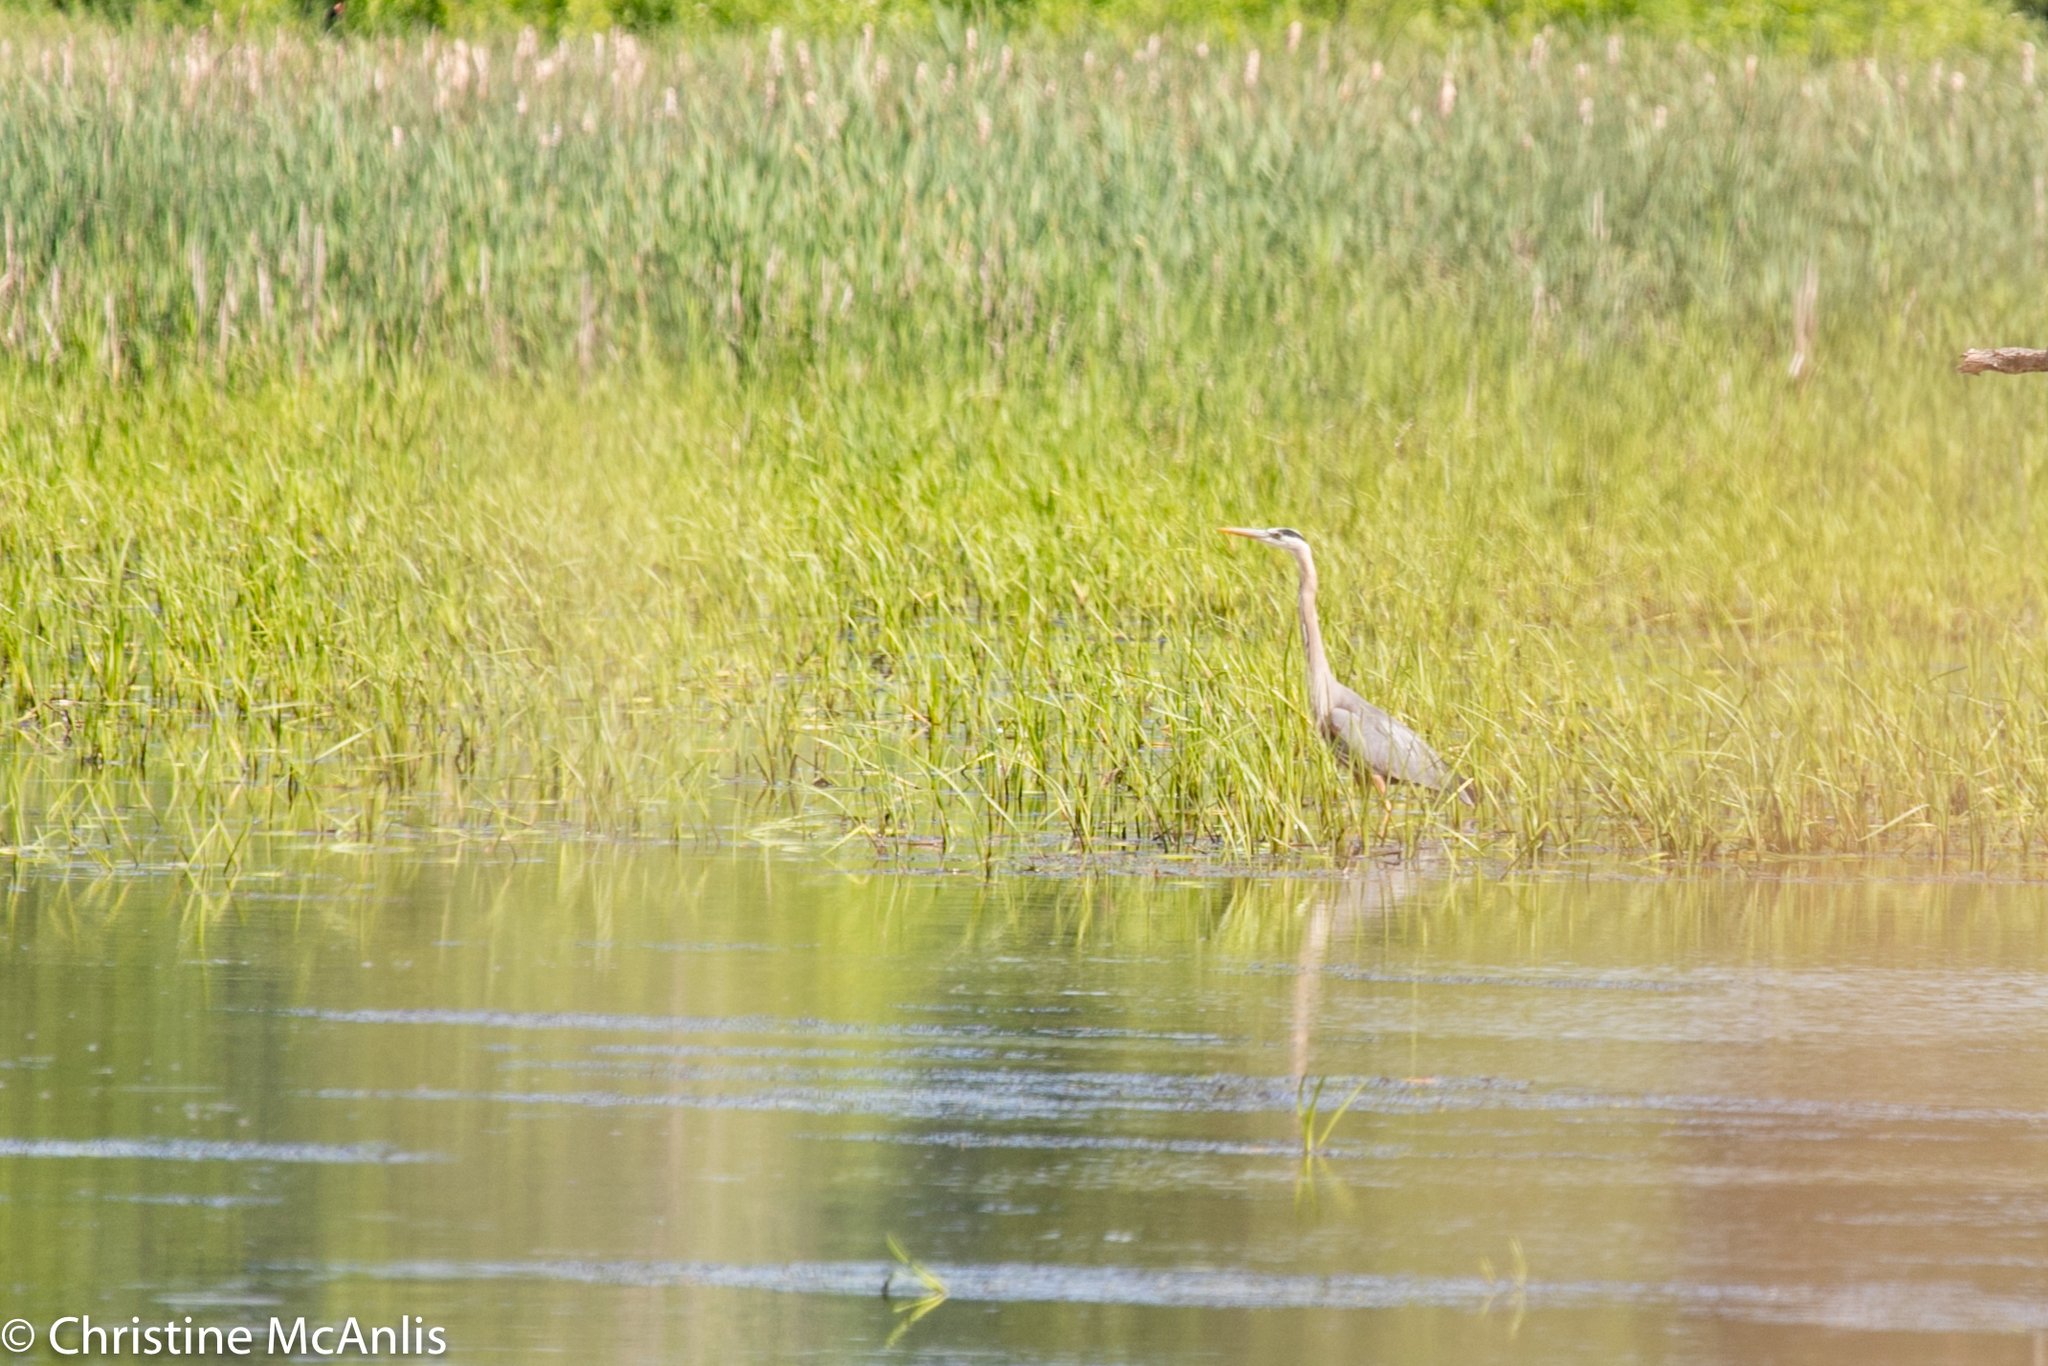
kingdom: Animalia
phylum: Chordata
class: Aves
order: Pelecaniformes
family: Ardeidae
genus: Ardea
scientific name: Ardea herodias
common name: Great blue heron
